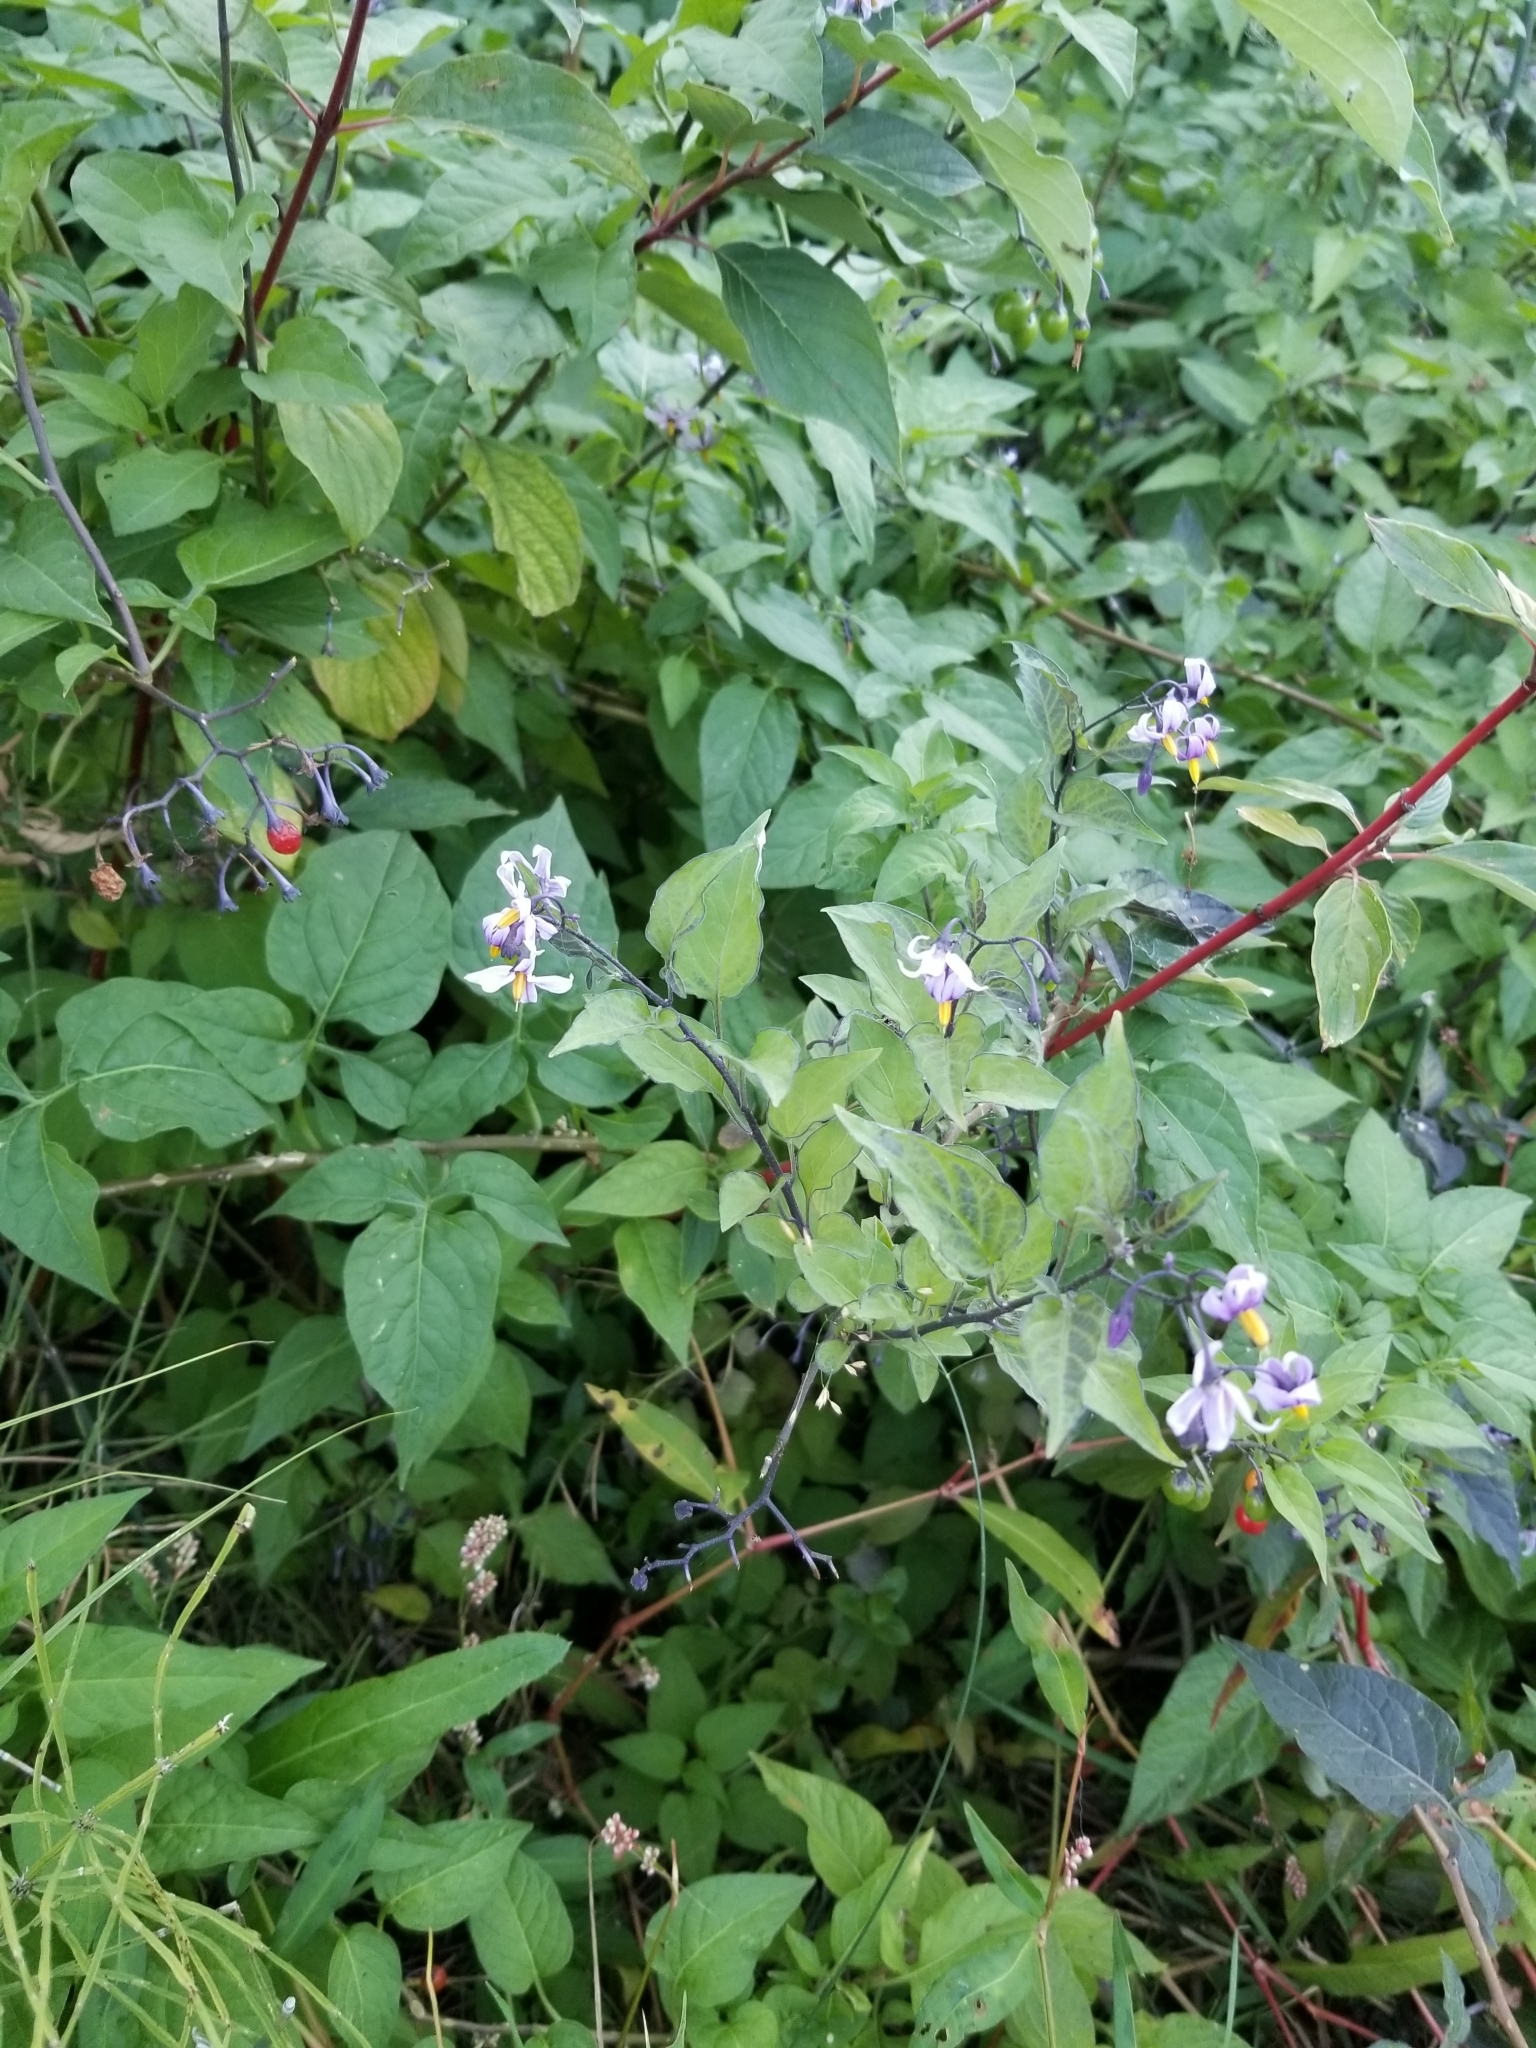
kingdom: Plantae
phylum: Tracheophyta
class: Magnoliopsida
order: Solanales
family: Solanaceae
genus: Solanum
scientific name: Solanum dulcamara
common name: Climbing nightshade
